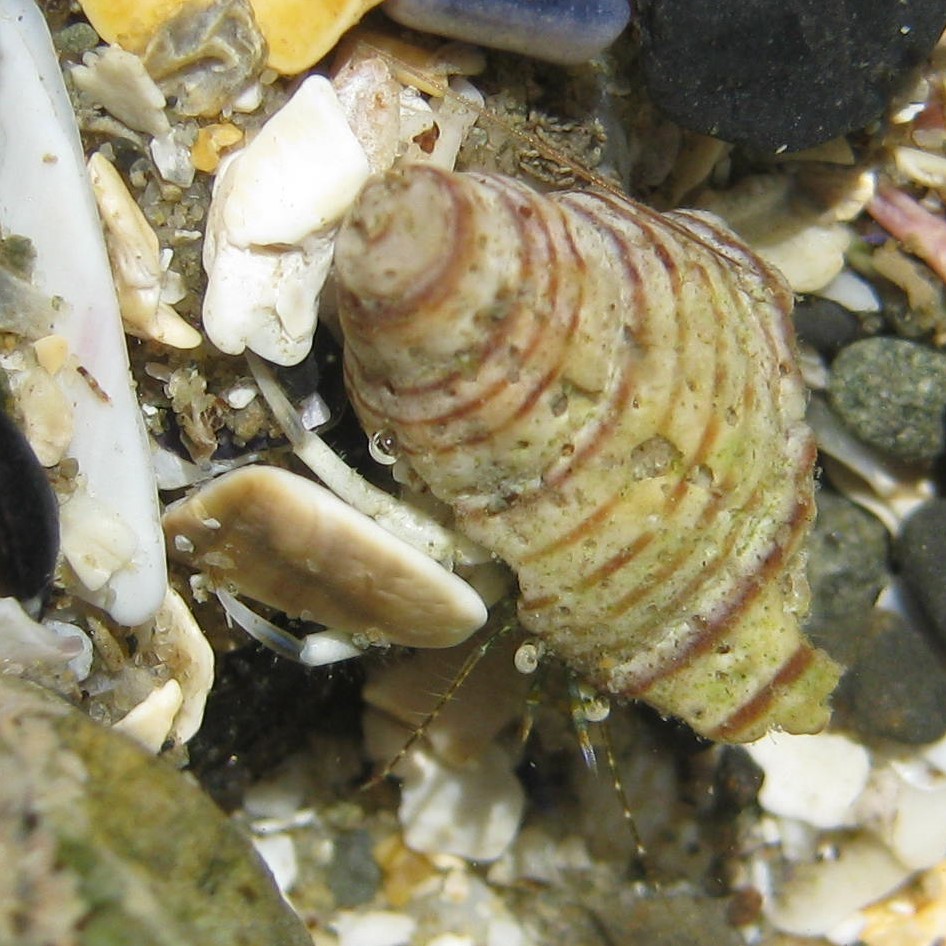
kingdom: Animalia
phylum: Arthropoda
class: Malacostraca
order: Decapoda
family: Paguridae
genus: Pagurus
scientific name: Pagurus novizealandiae
